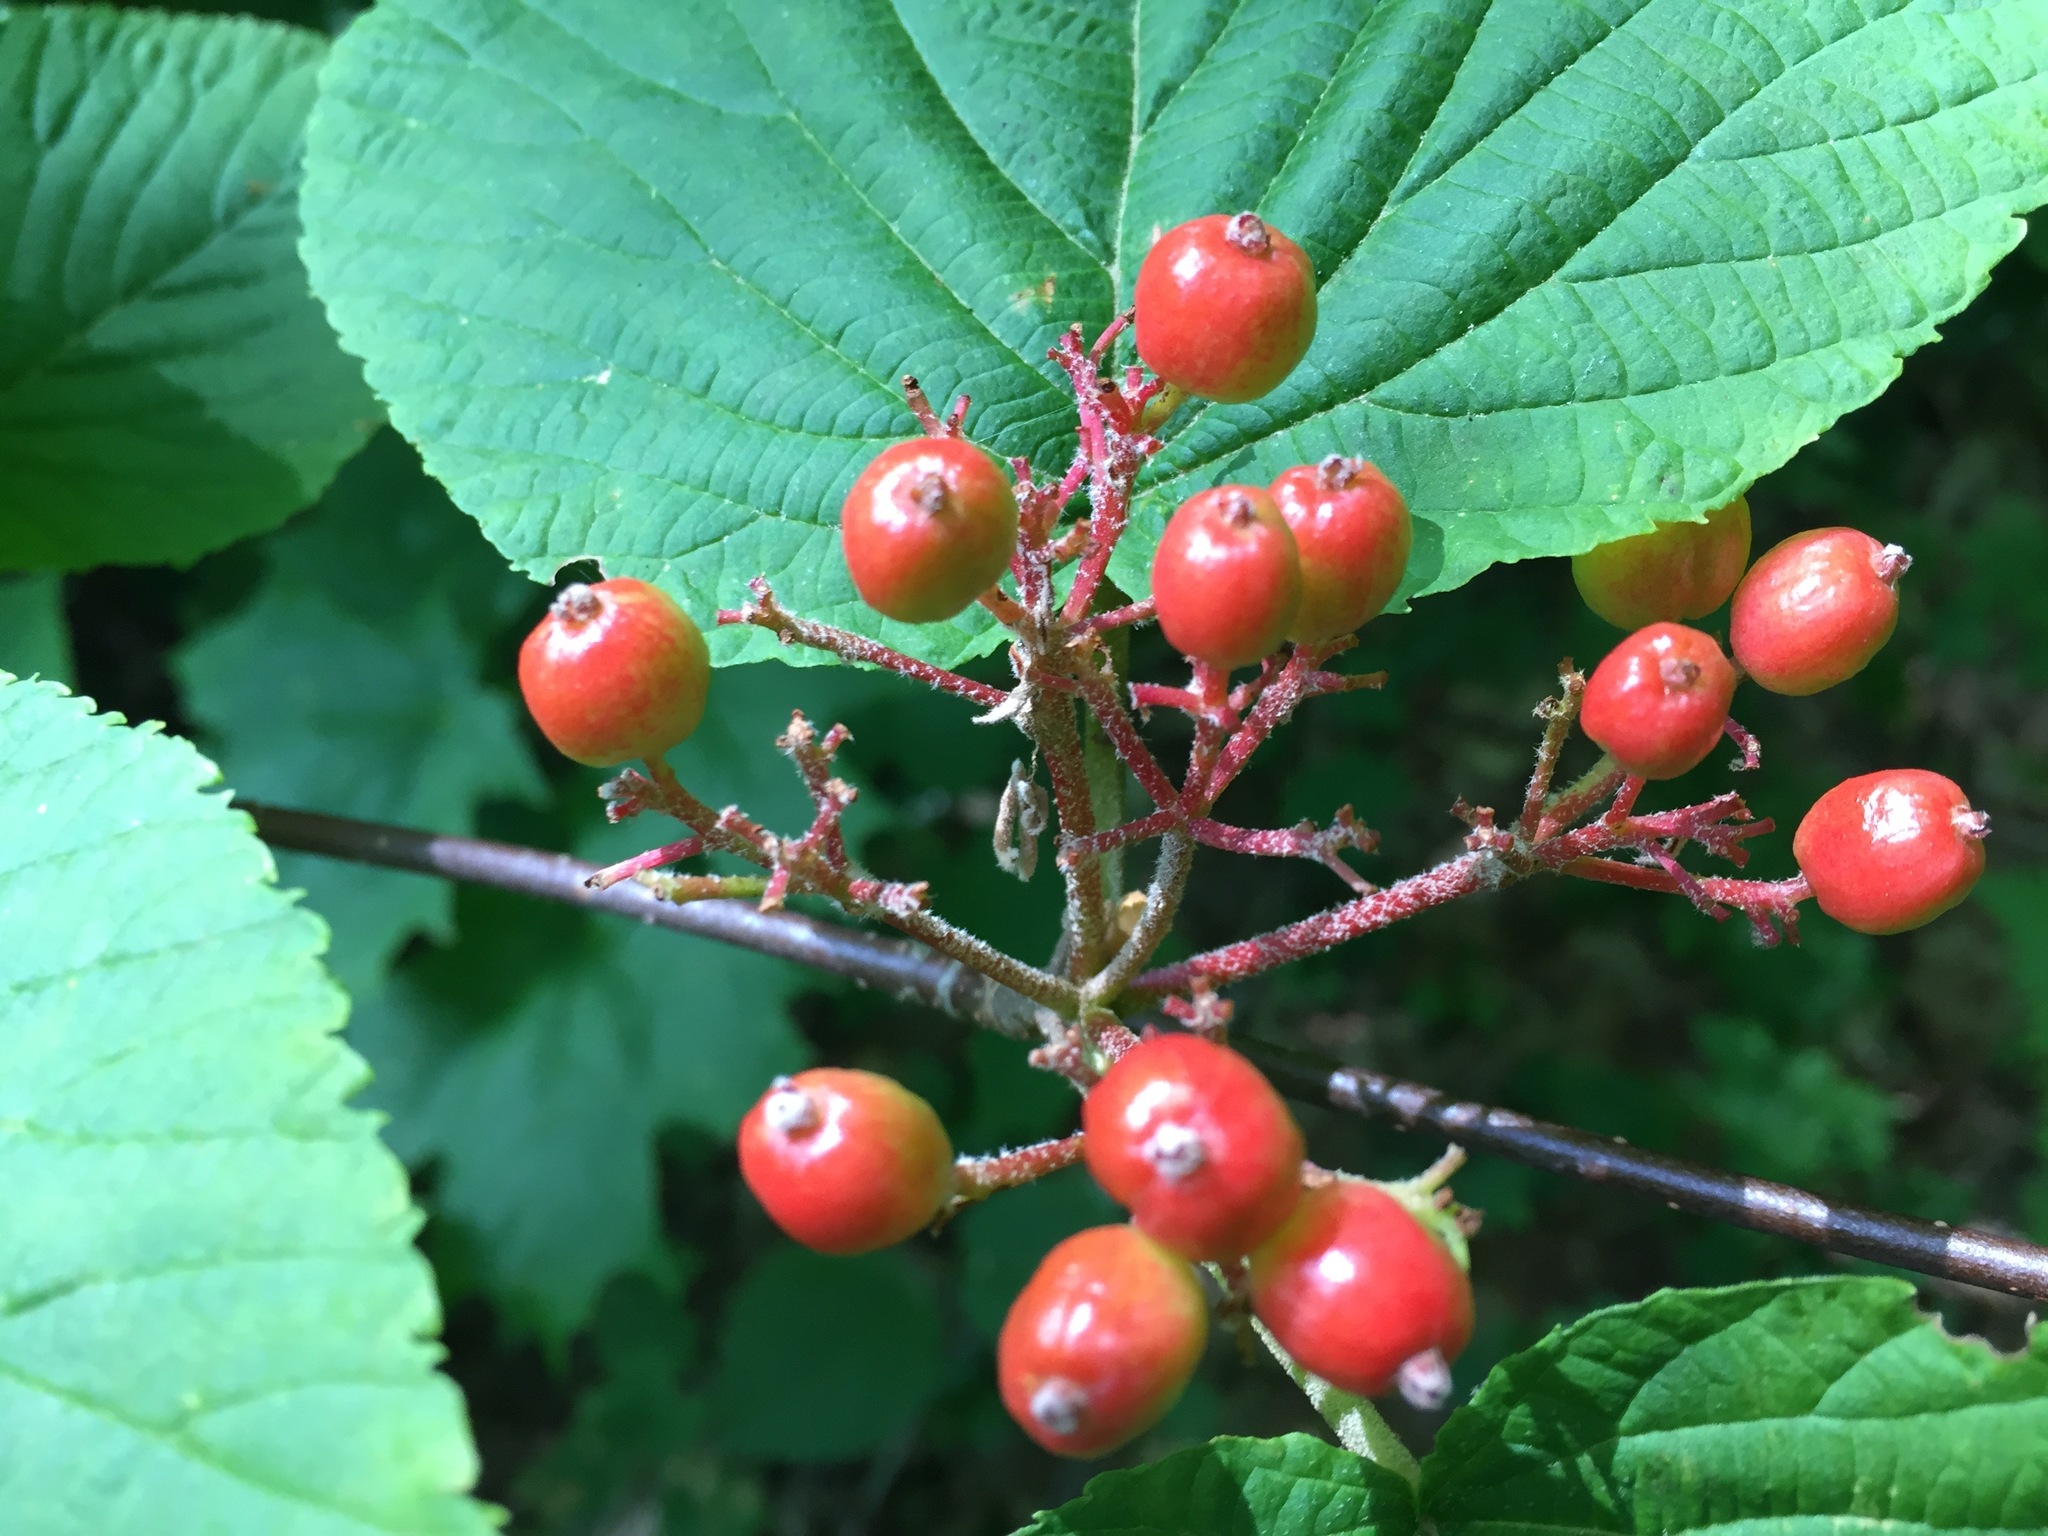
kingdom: Plantae
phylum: Tracheophyta
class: Magnoliopsida
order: Dipsacales
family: Viburnaceae
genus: Viburnum
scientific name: Viburnum lantanoides
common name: Hobblebush
